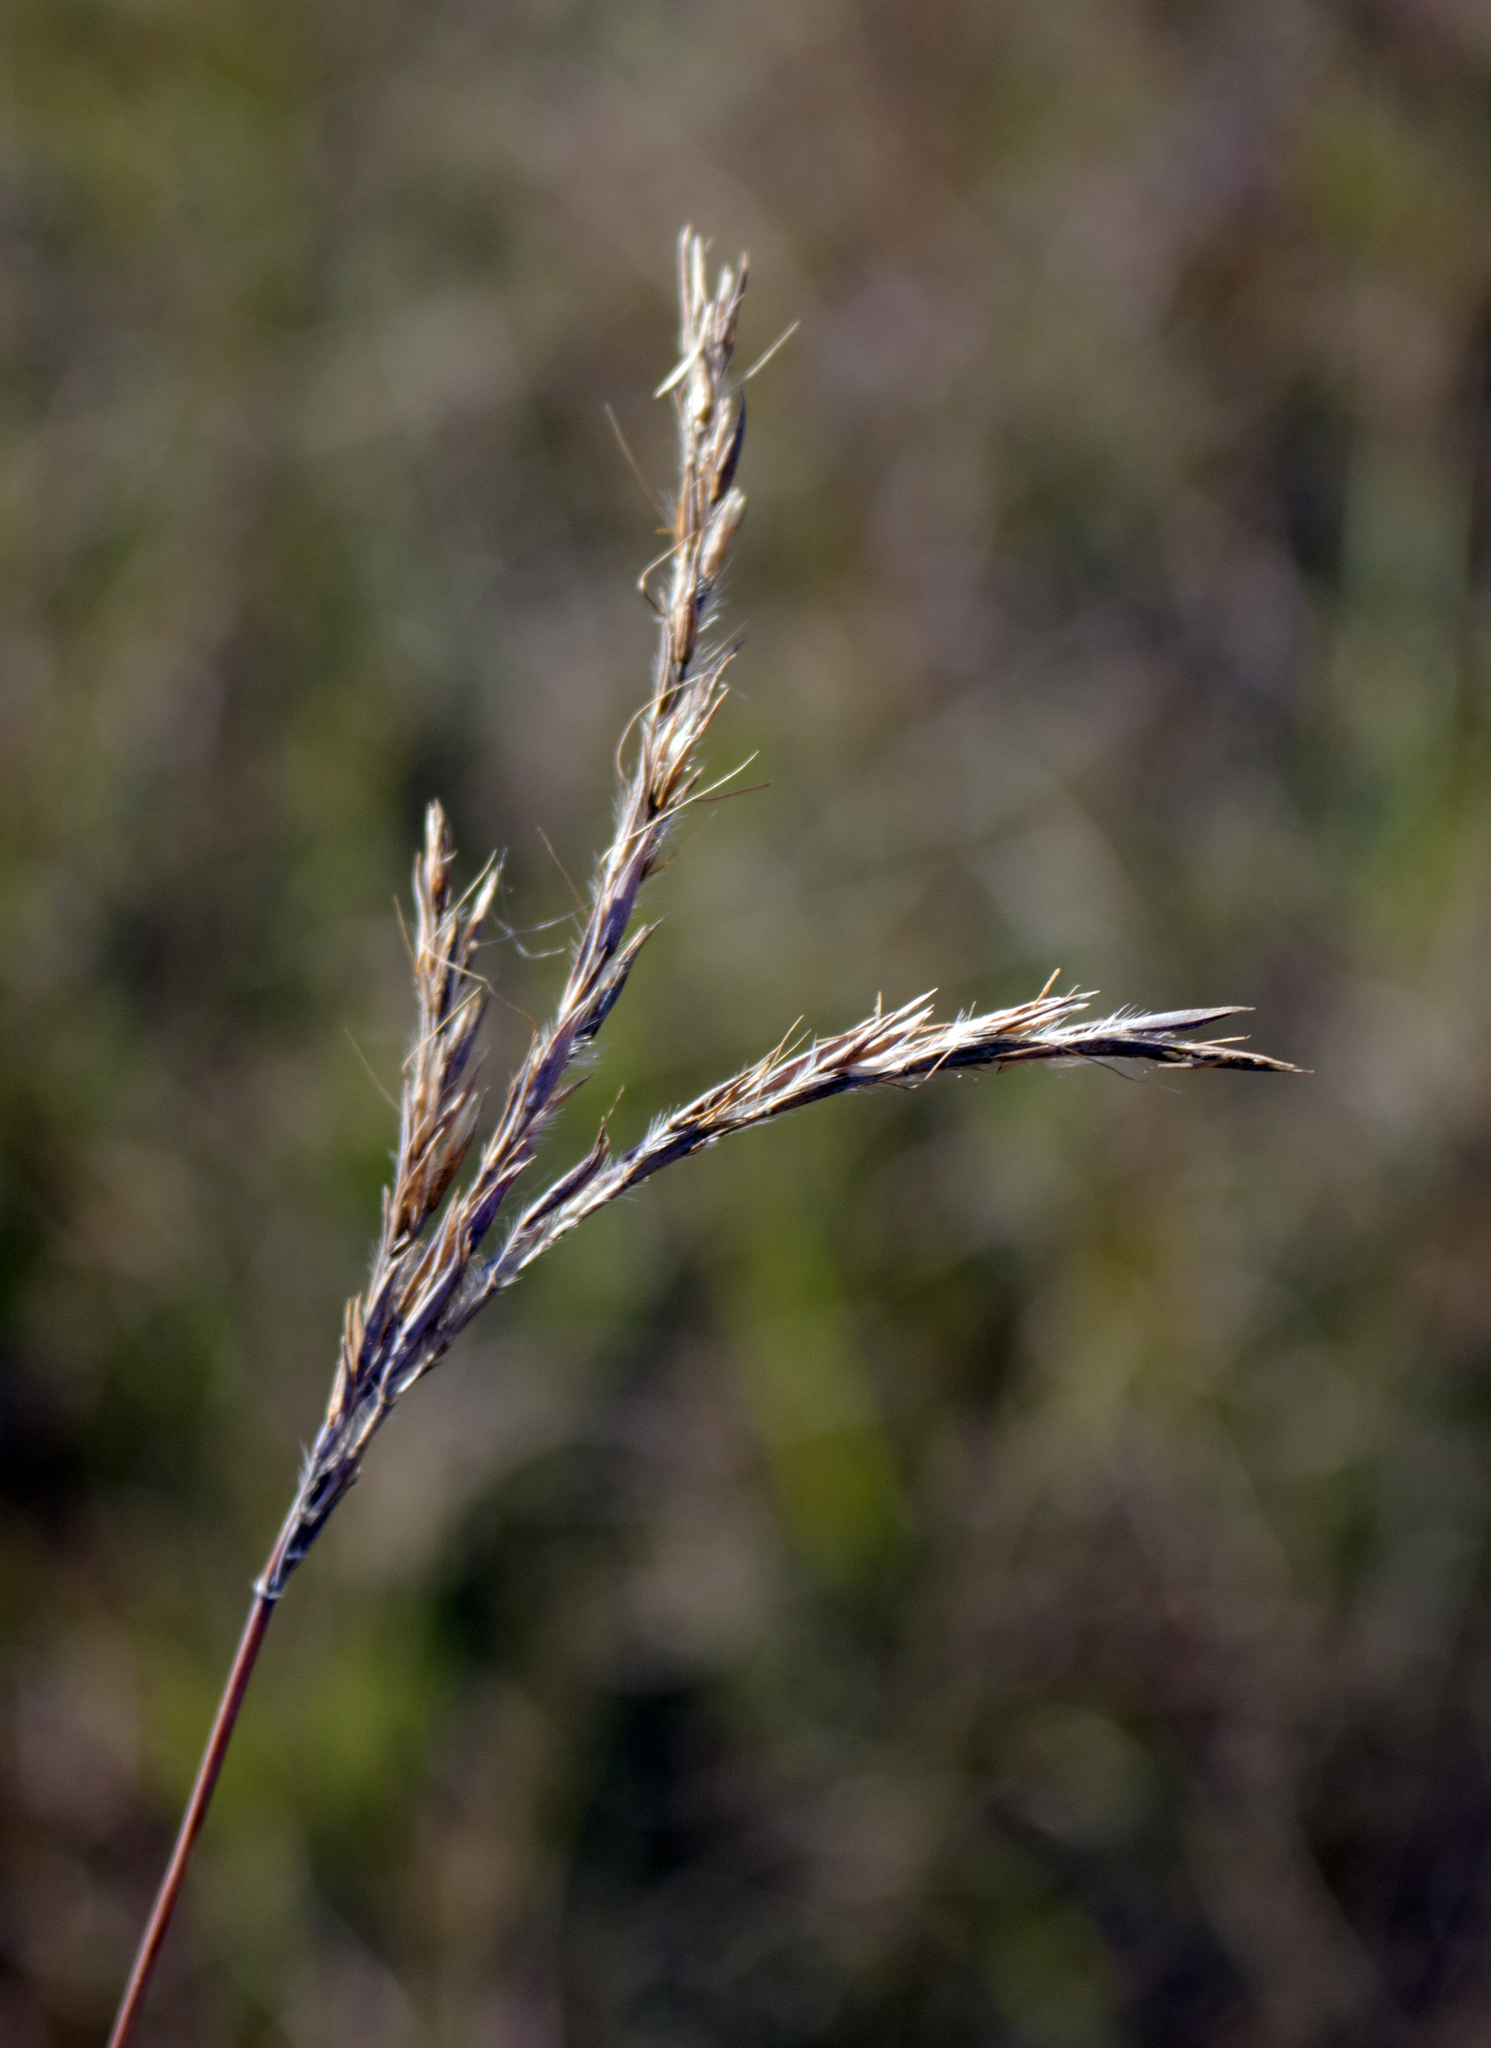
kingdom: Plantae
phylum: Tracheophyta
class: Liliopsida
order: Poales
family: Poaceae
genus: Andropogon
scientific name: Andropogon gerardi
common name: Big bluestem
